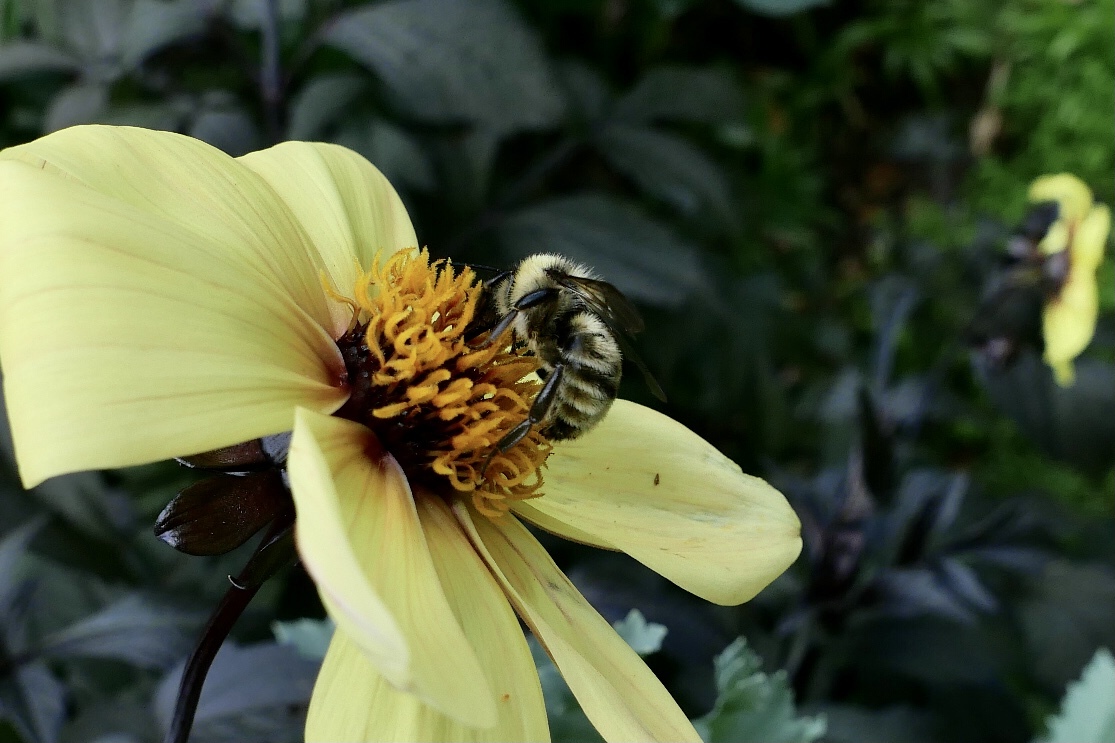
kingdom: Animalia
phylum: Arthropoda
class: Insecta
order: Hymenoptera
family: Apidae
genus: Bombus
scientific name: Bombus californicus
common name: California bumble bee
